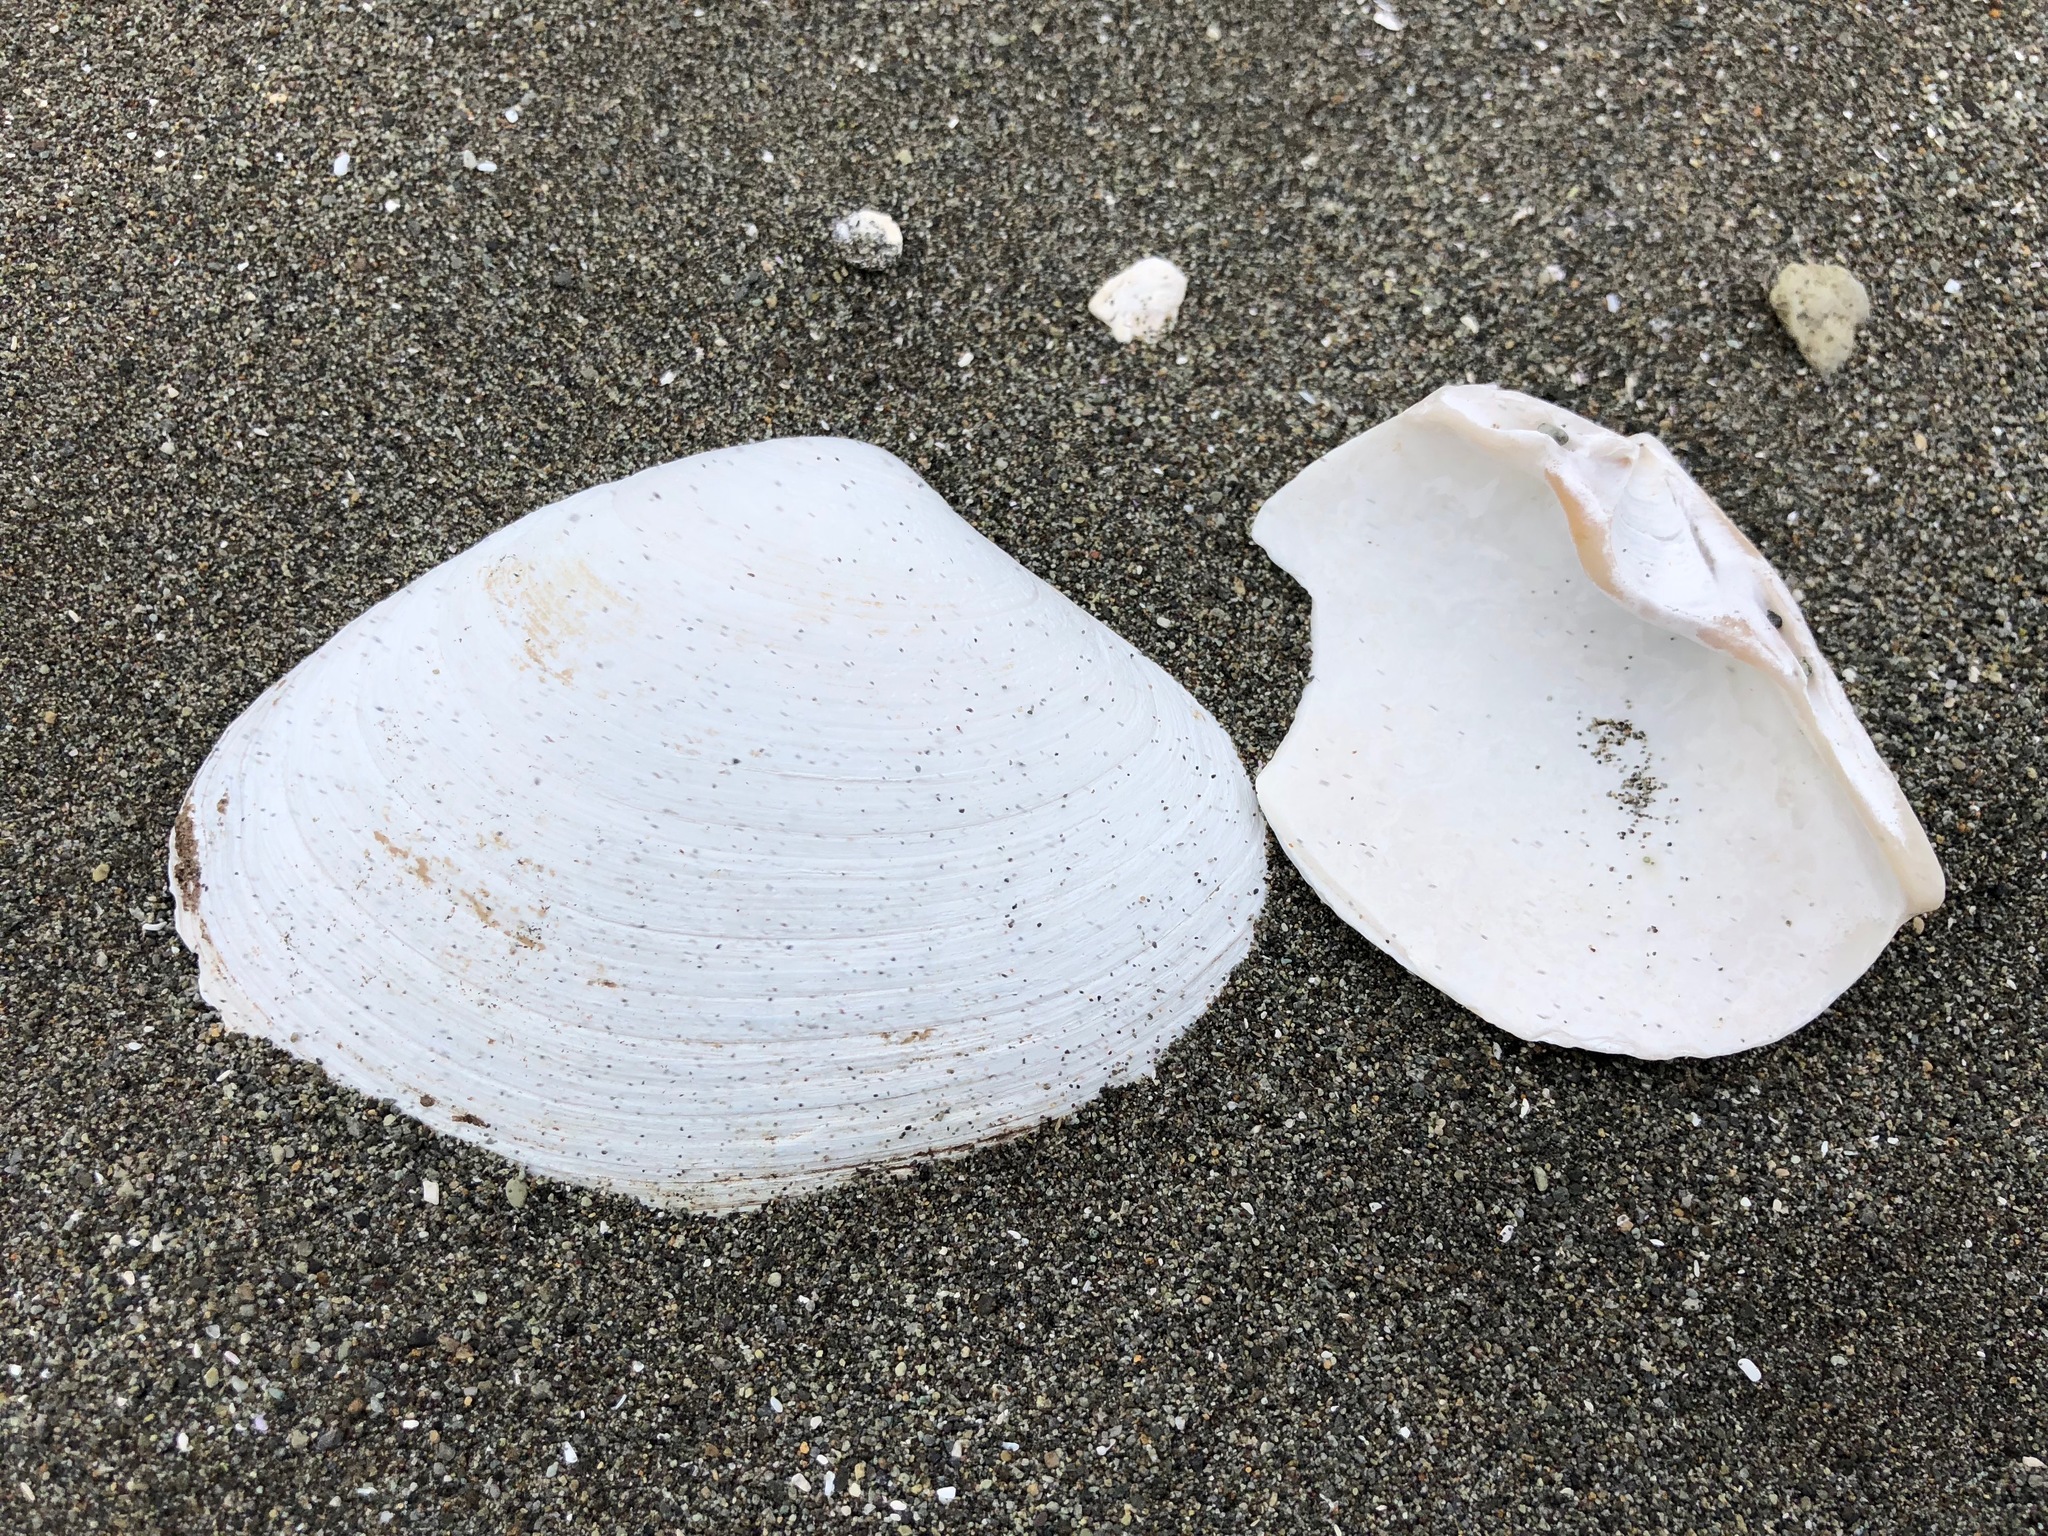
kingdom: Animalia
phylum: Mollusca
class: Bivalvia
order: Venerida
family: Mactridae
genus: Mactromeris
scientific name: Mactromeris polynyma
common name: Arctic surf clam
